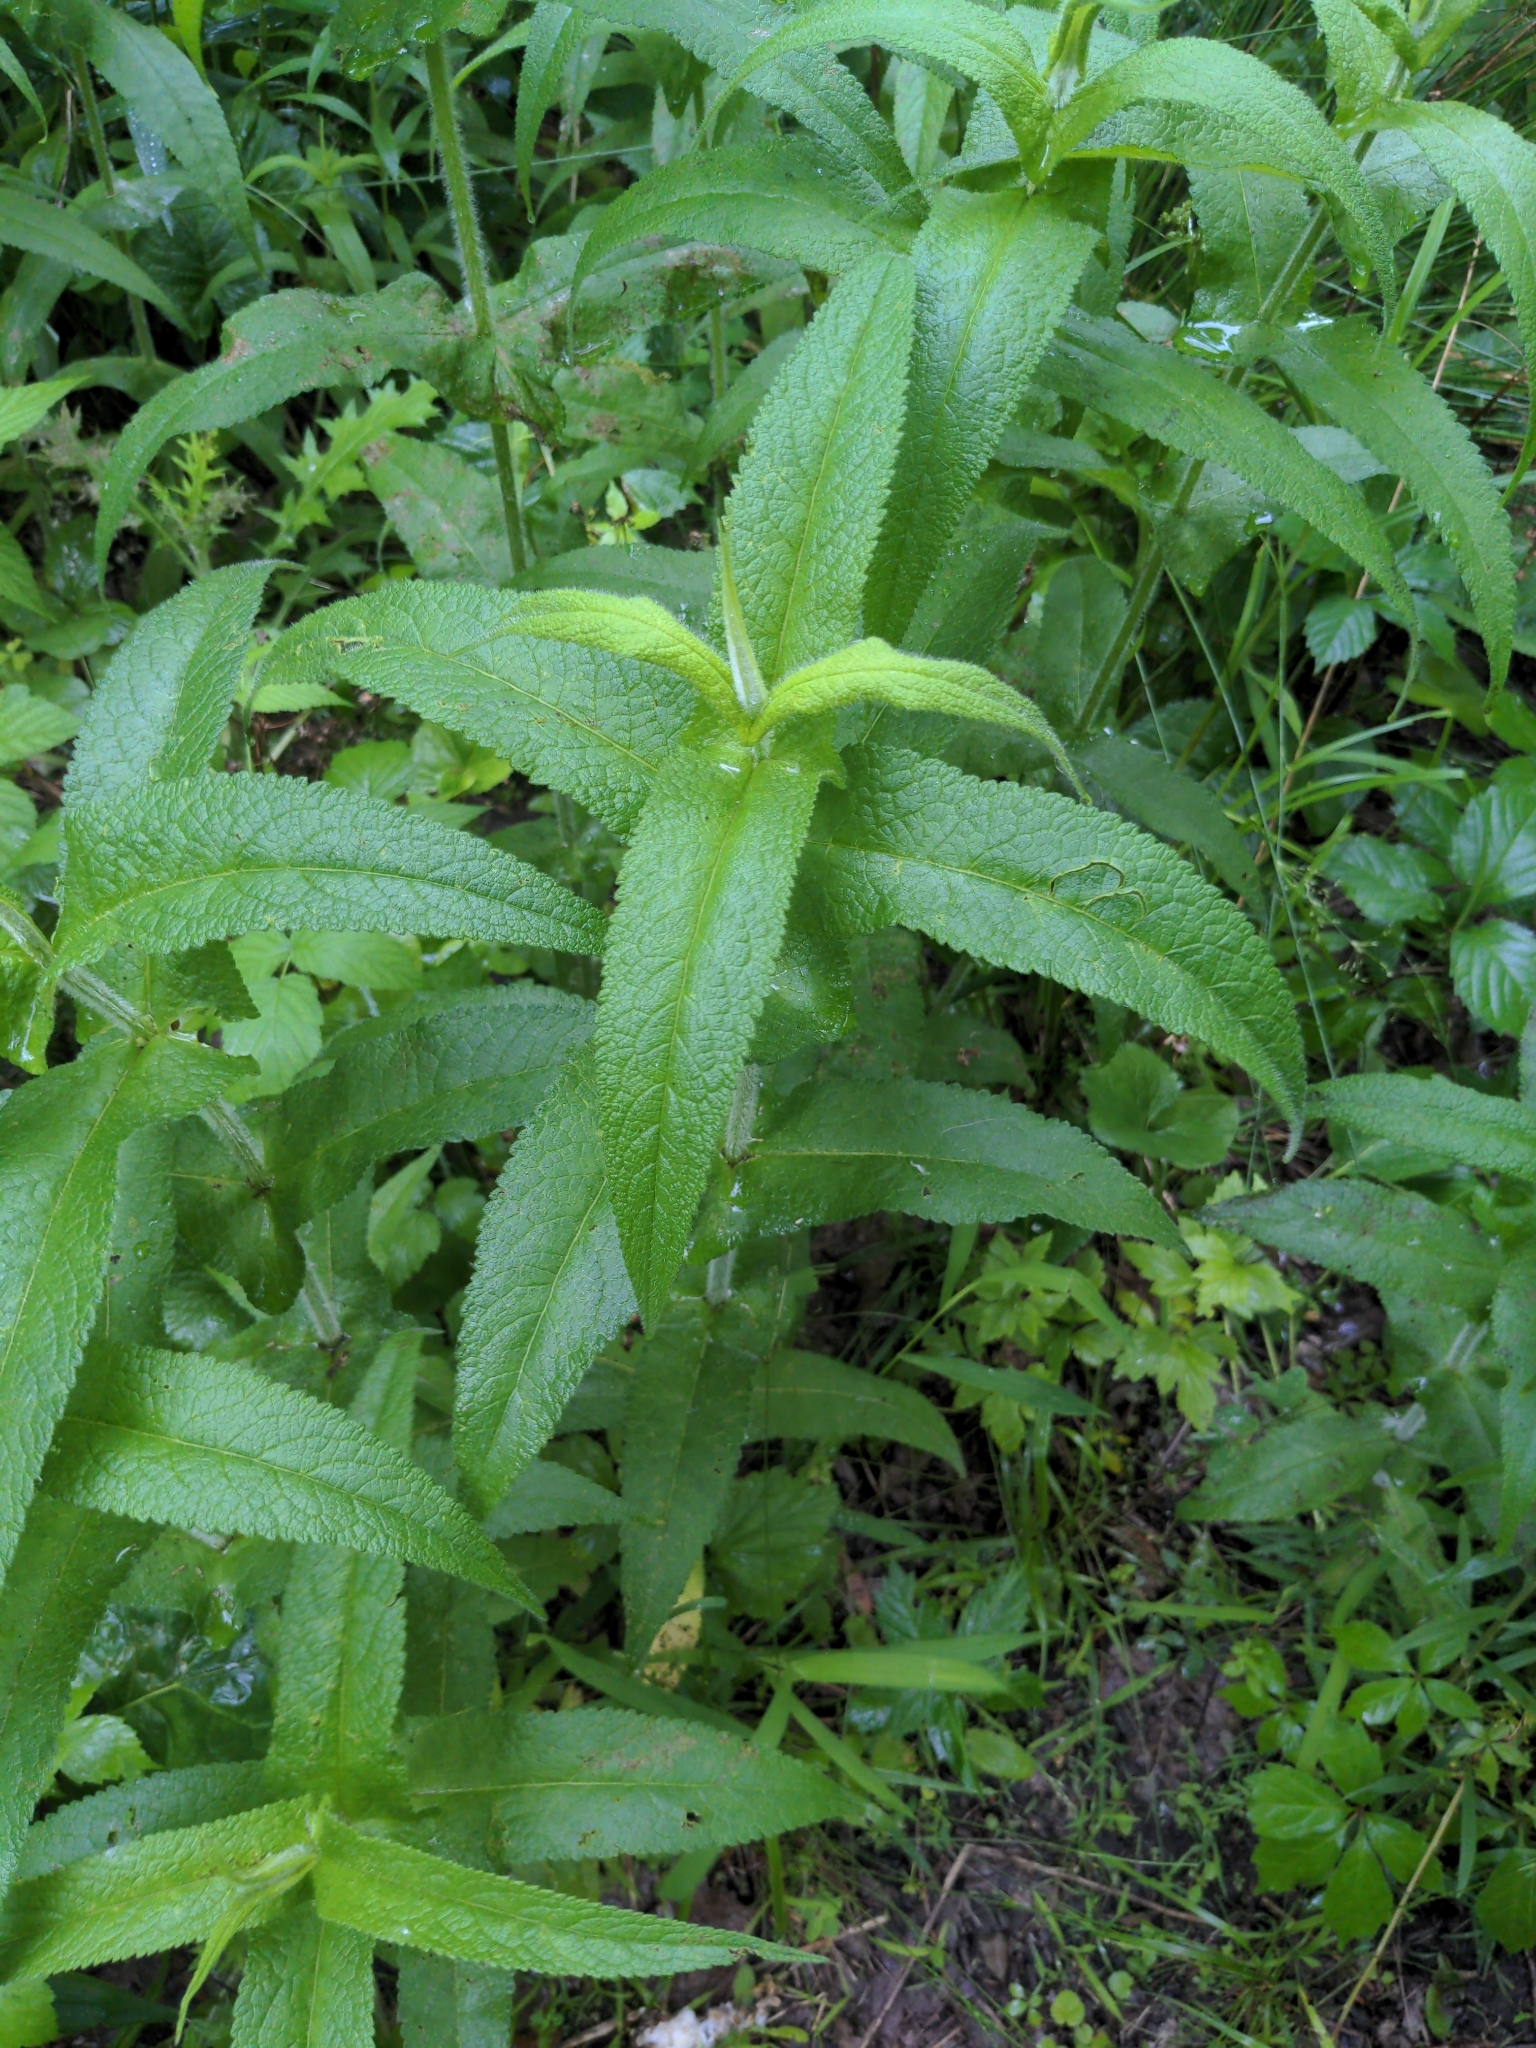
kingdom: Plantae
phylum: Tracheophyta
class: Magnoliopsida
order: Asterales
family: Asteraceae
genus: Eupatorium
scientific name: Eupatorium perfoliatum
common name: Boneset
